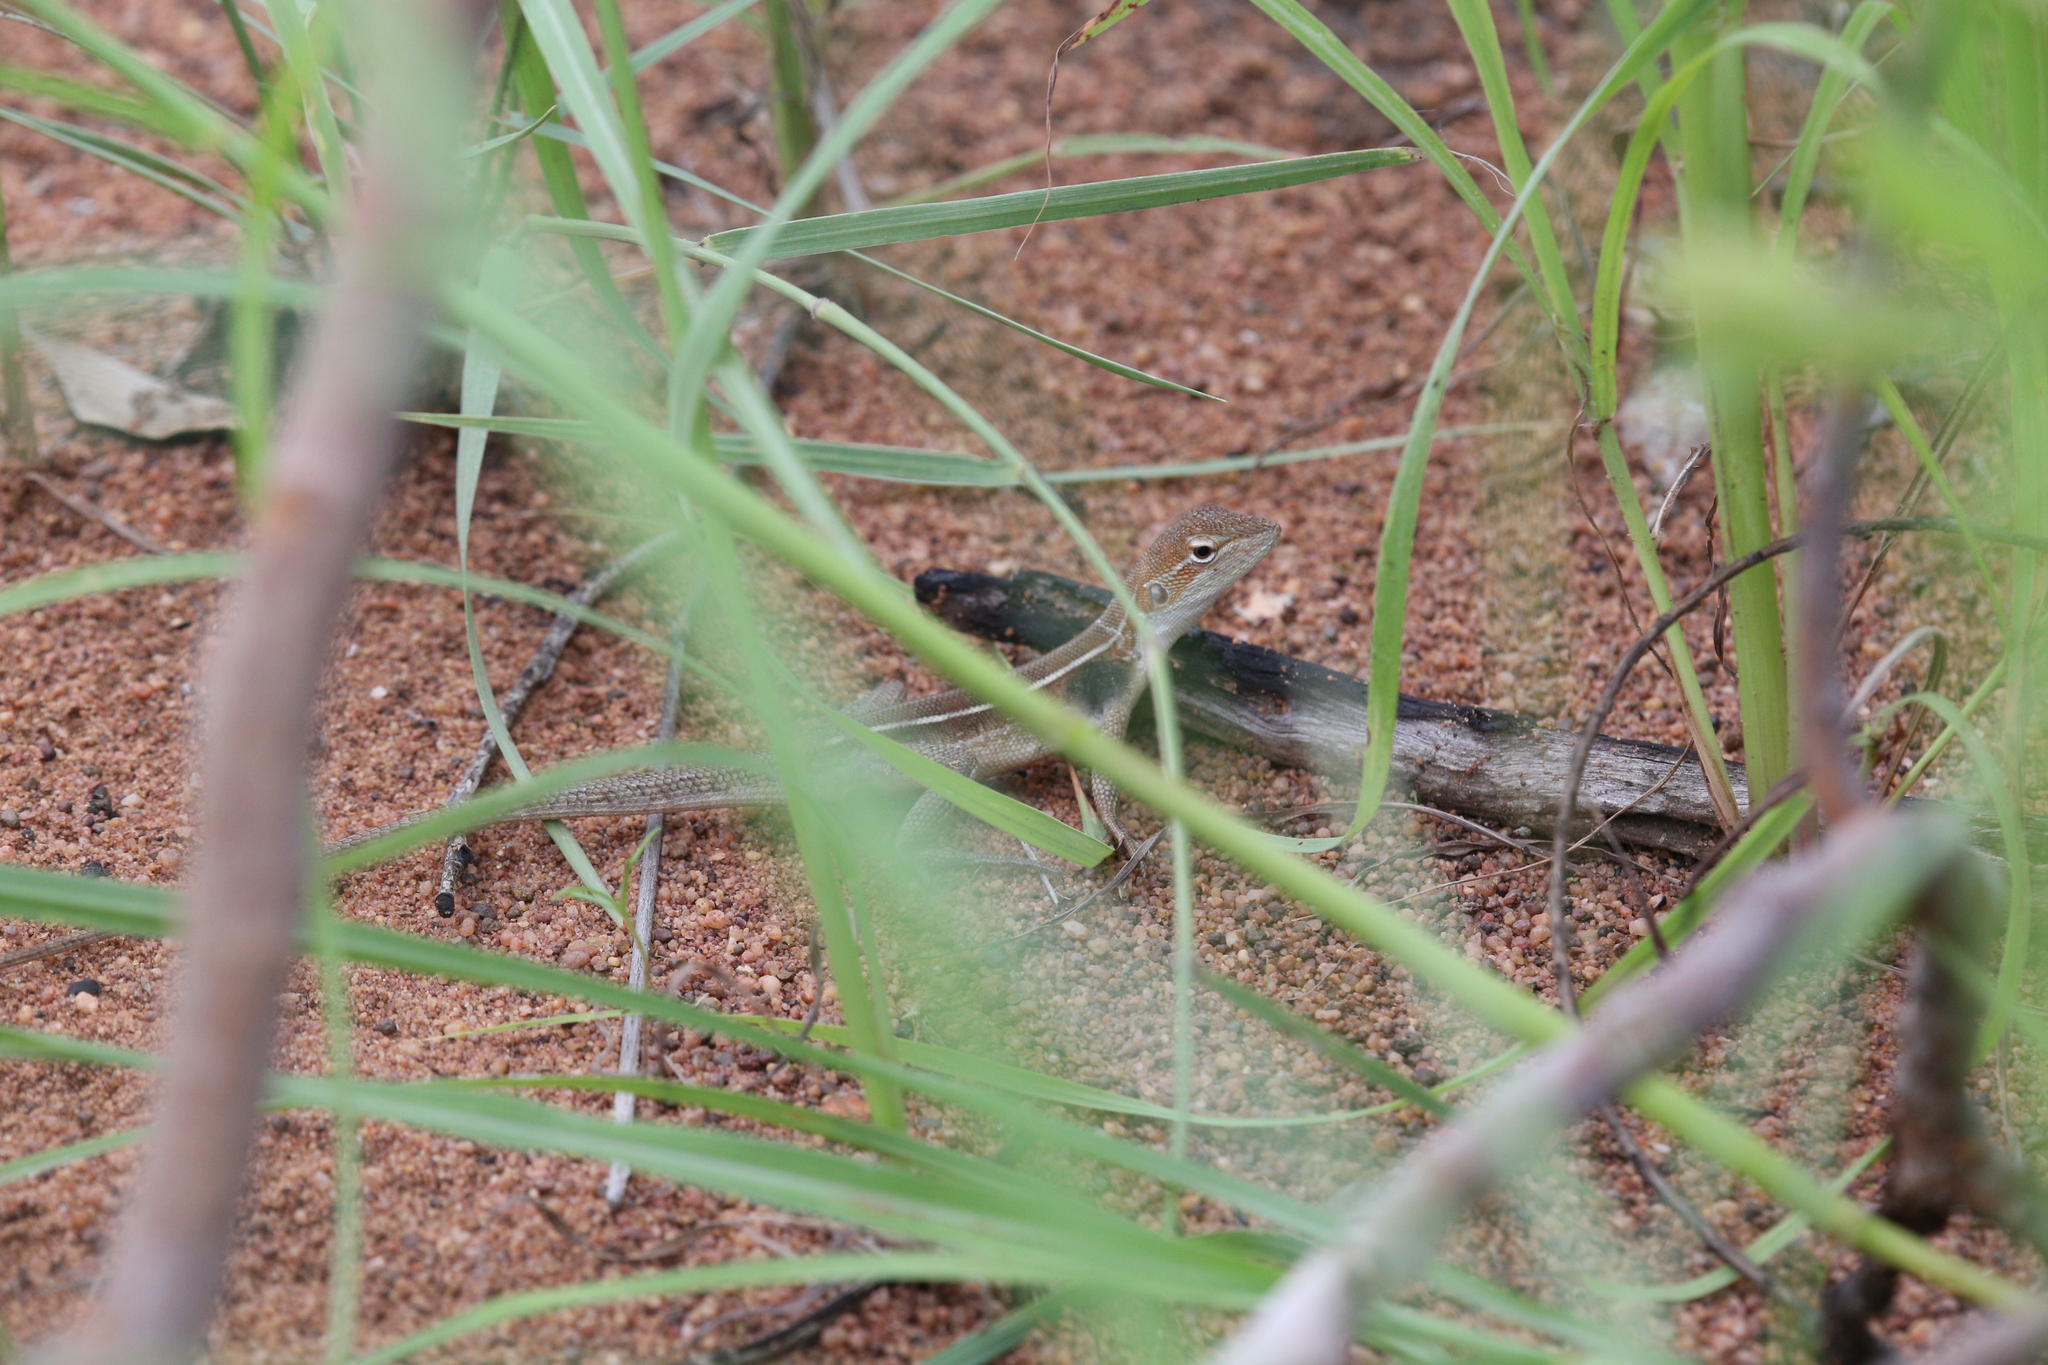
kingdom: Animalia
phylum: Chordata
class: Squamata
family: Agamidae
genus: Diporiphora
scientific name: Diporiphora magna
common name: Yellow-sided two-line dragon
